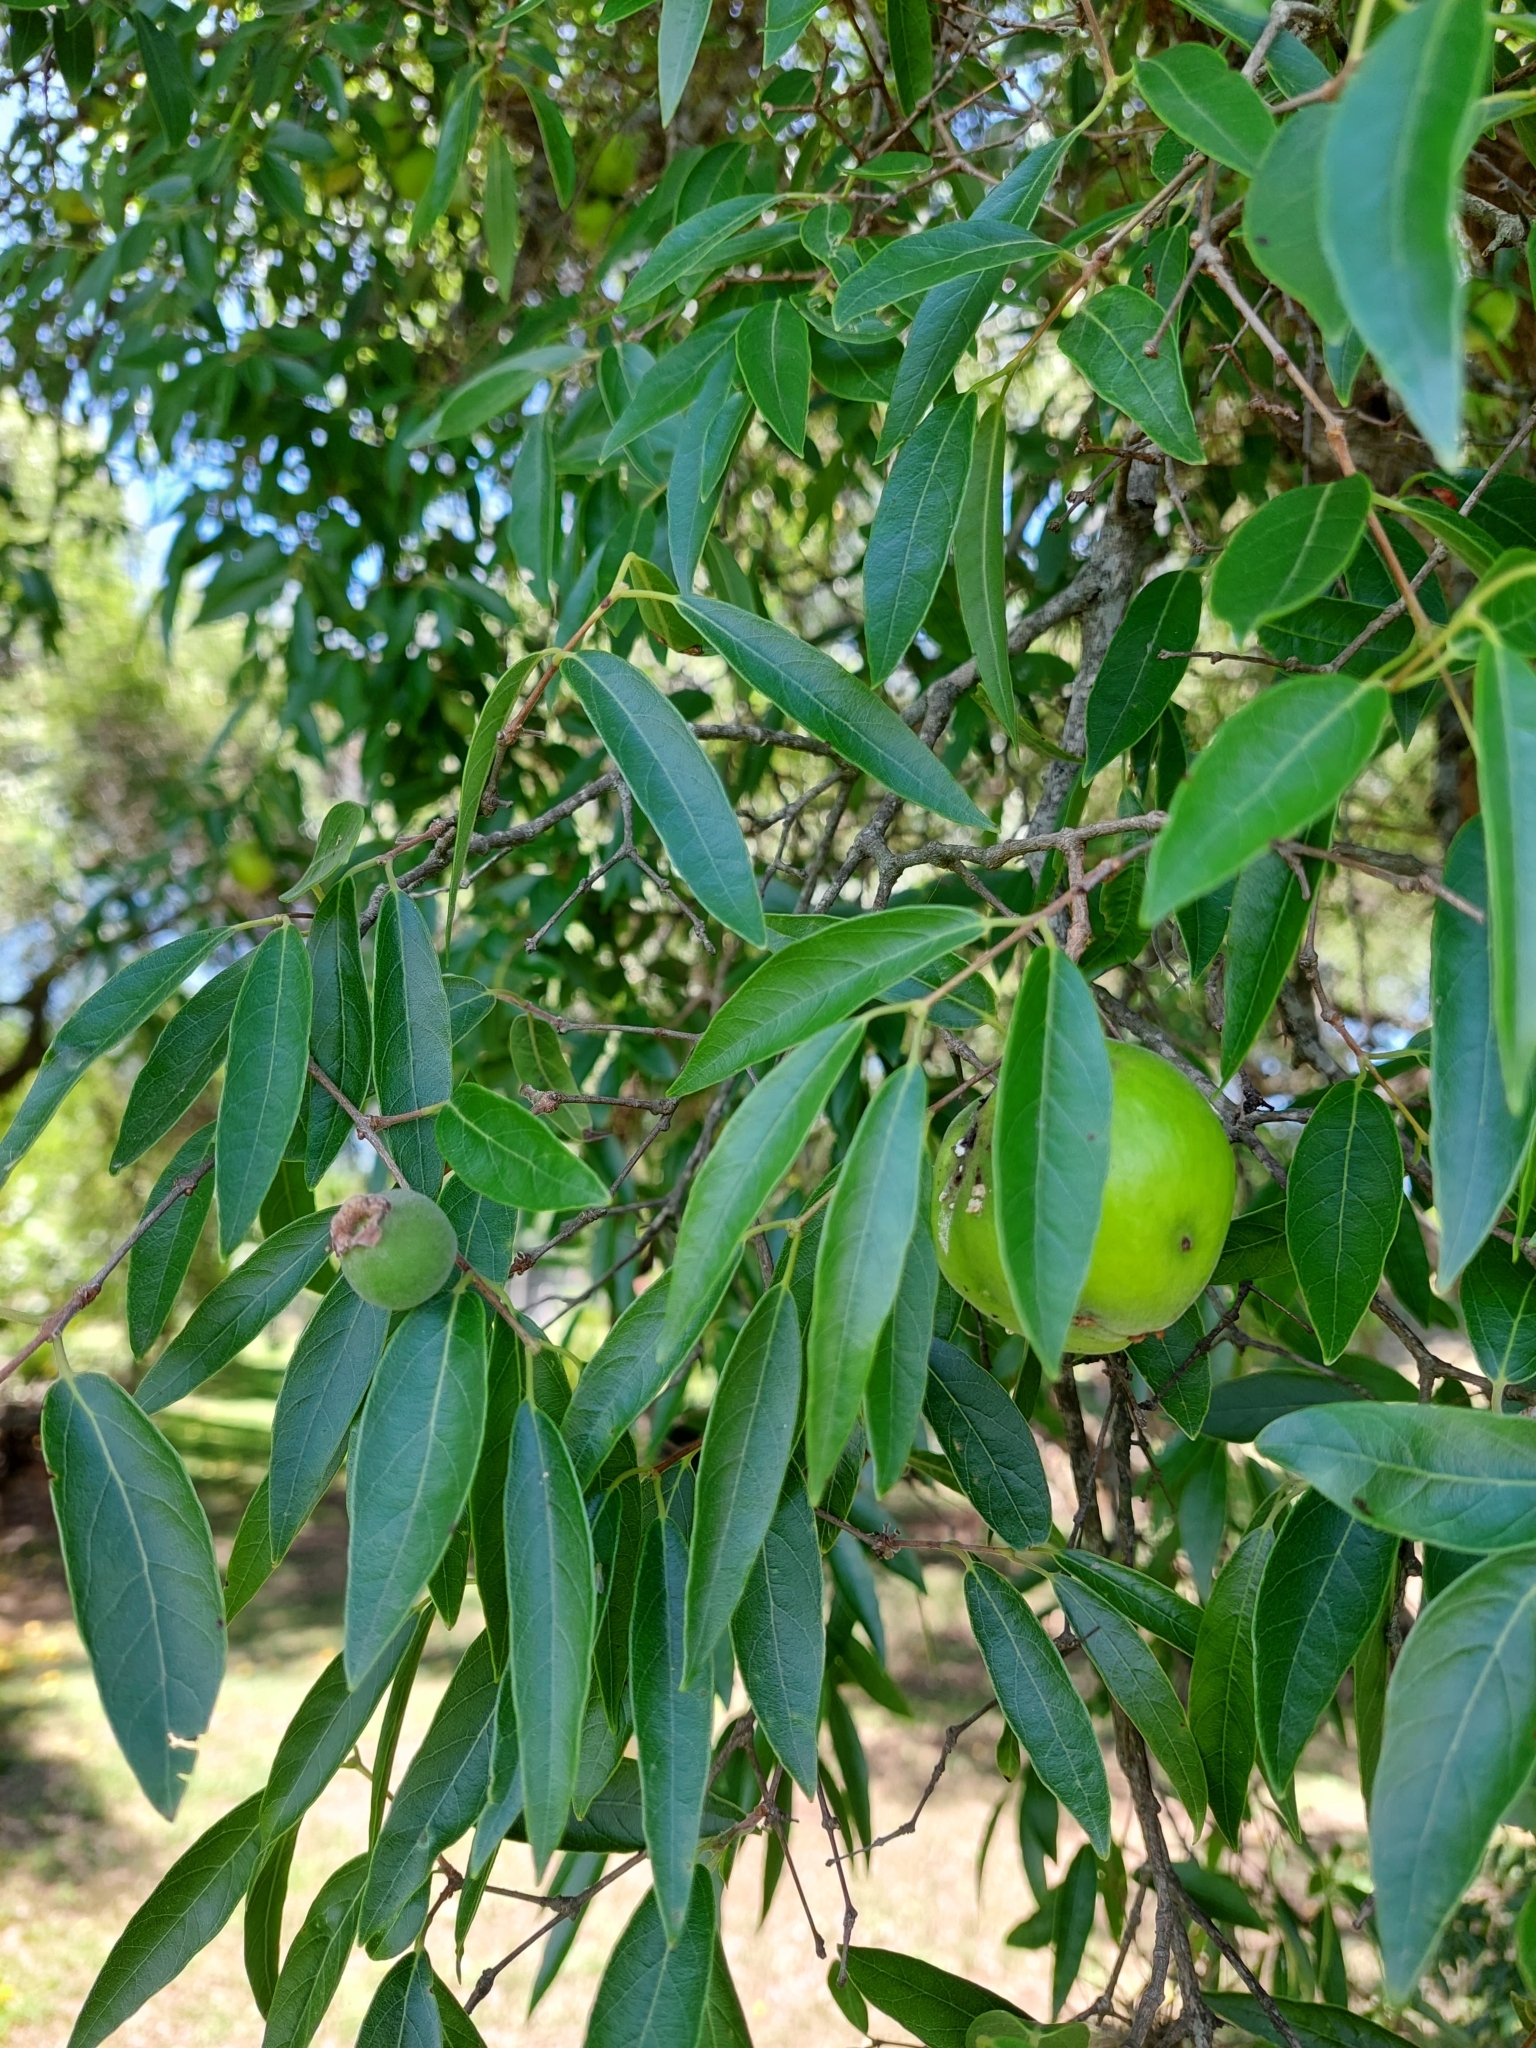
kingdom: Plantae
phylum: Tracheophyta
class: Magnoliopsida
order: Myrtales
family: Myrtaceae
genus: Eugenia
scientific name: Eugenia myrcianthes
